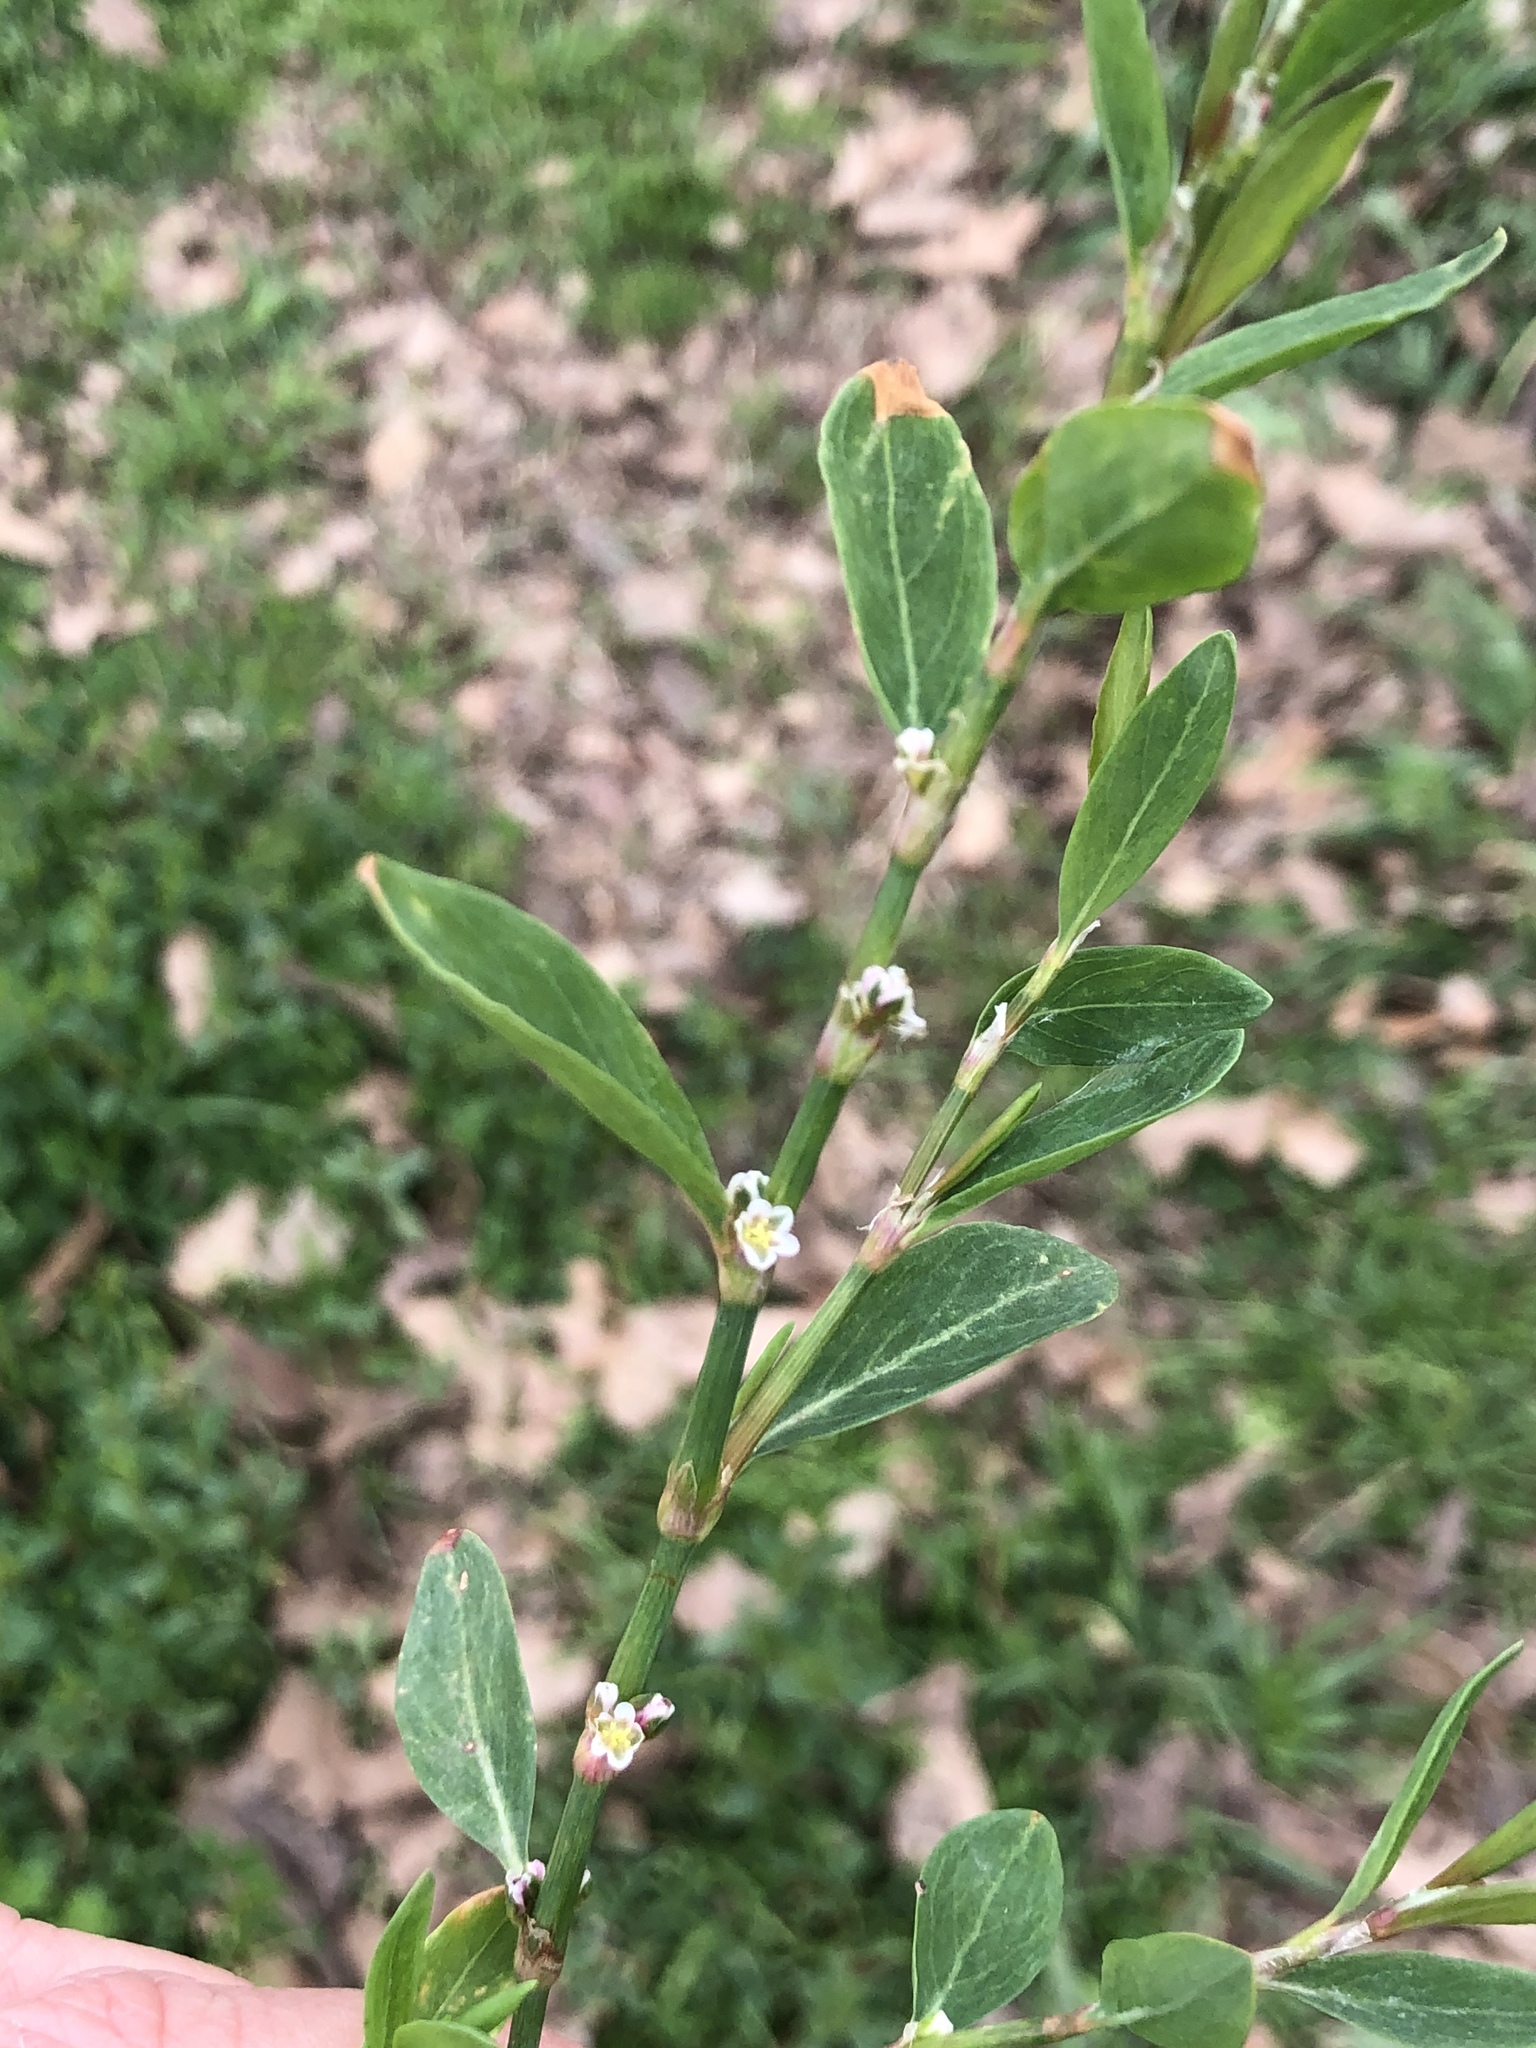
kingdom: Plantae
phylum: Tracheophyta
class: Magnoliopsida
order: Caryophyllales
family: Polygonaceae
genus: Polygonum
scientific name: Polygonum aviculare
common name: Prostrate knotweed
